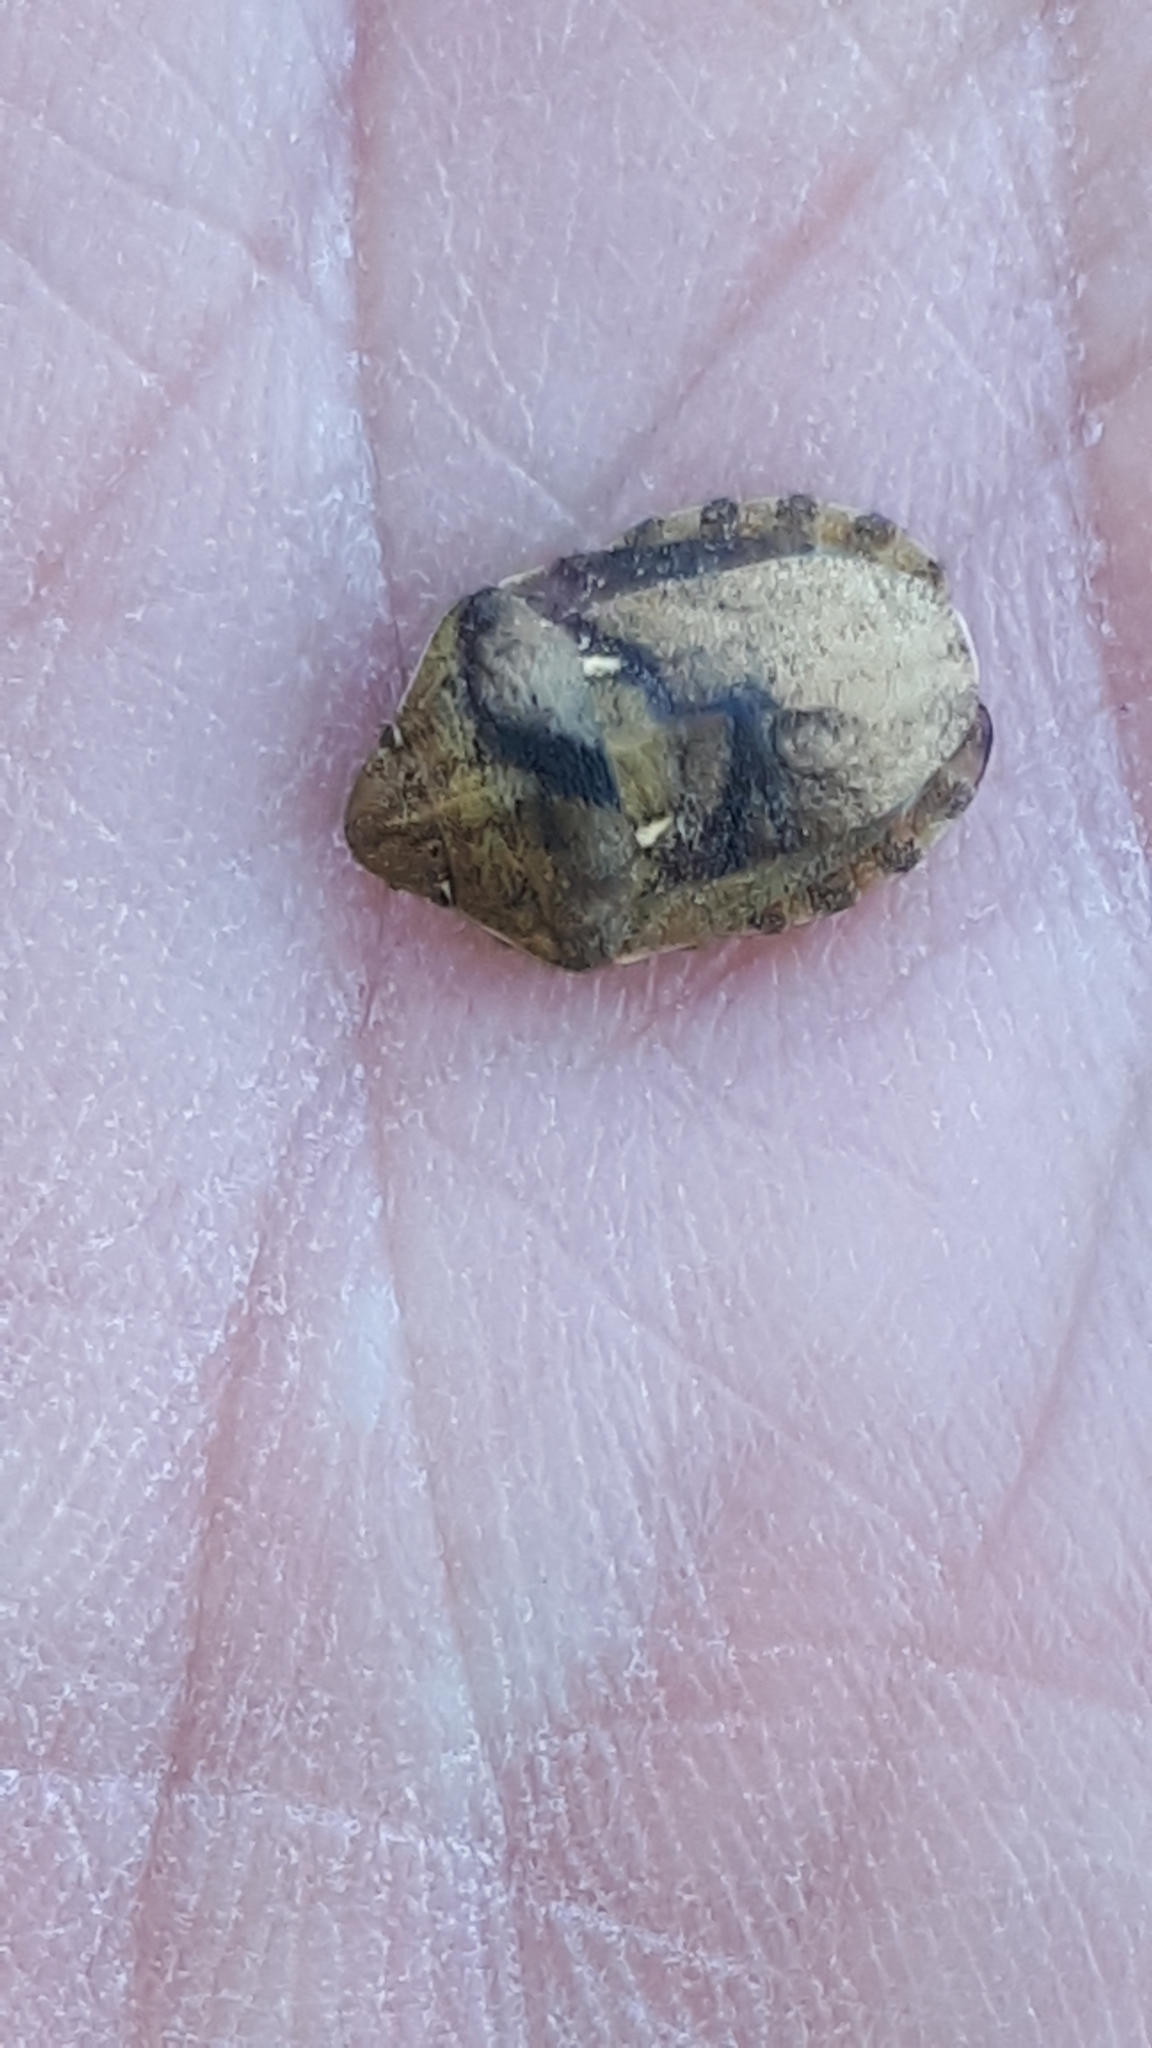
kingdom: Animalia
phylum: Arthropoda
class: Insecta
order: Hemiptera
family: Scutelleridae
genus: Eurygaster
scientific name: Eurygaster maura
